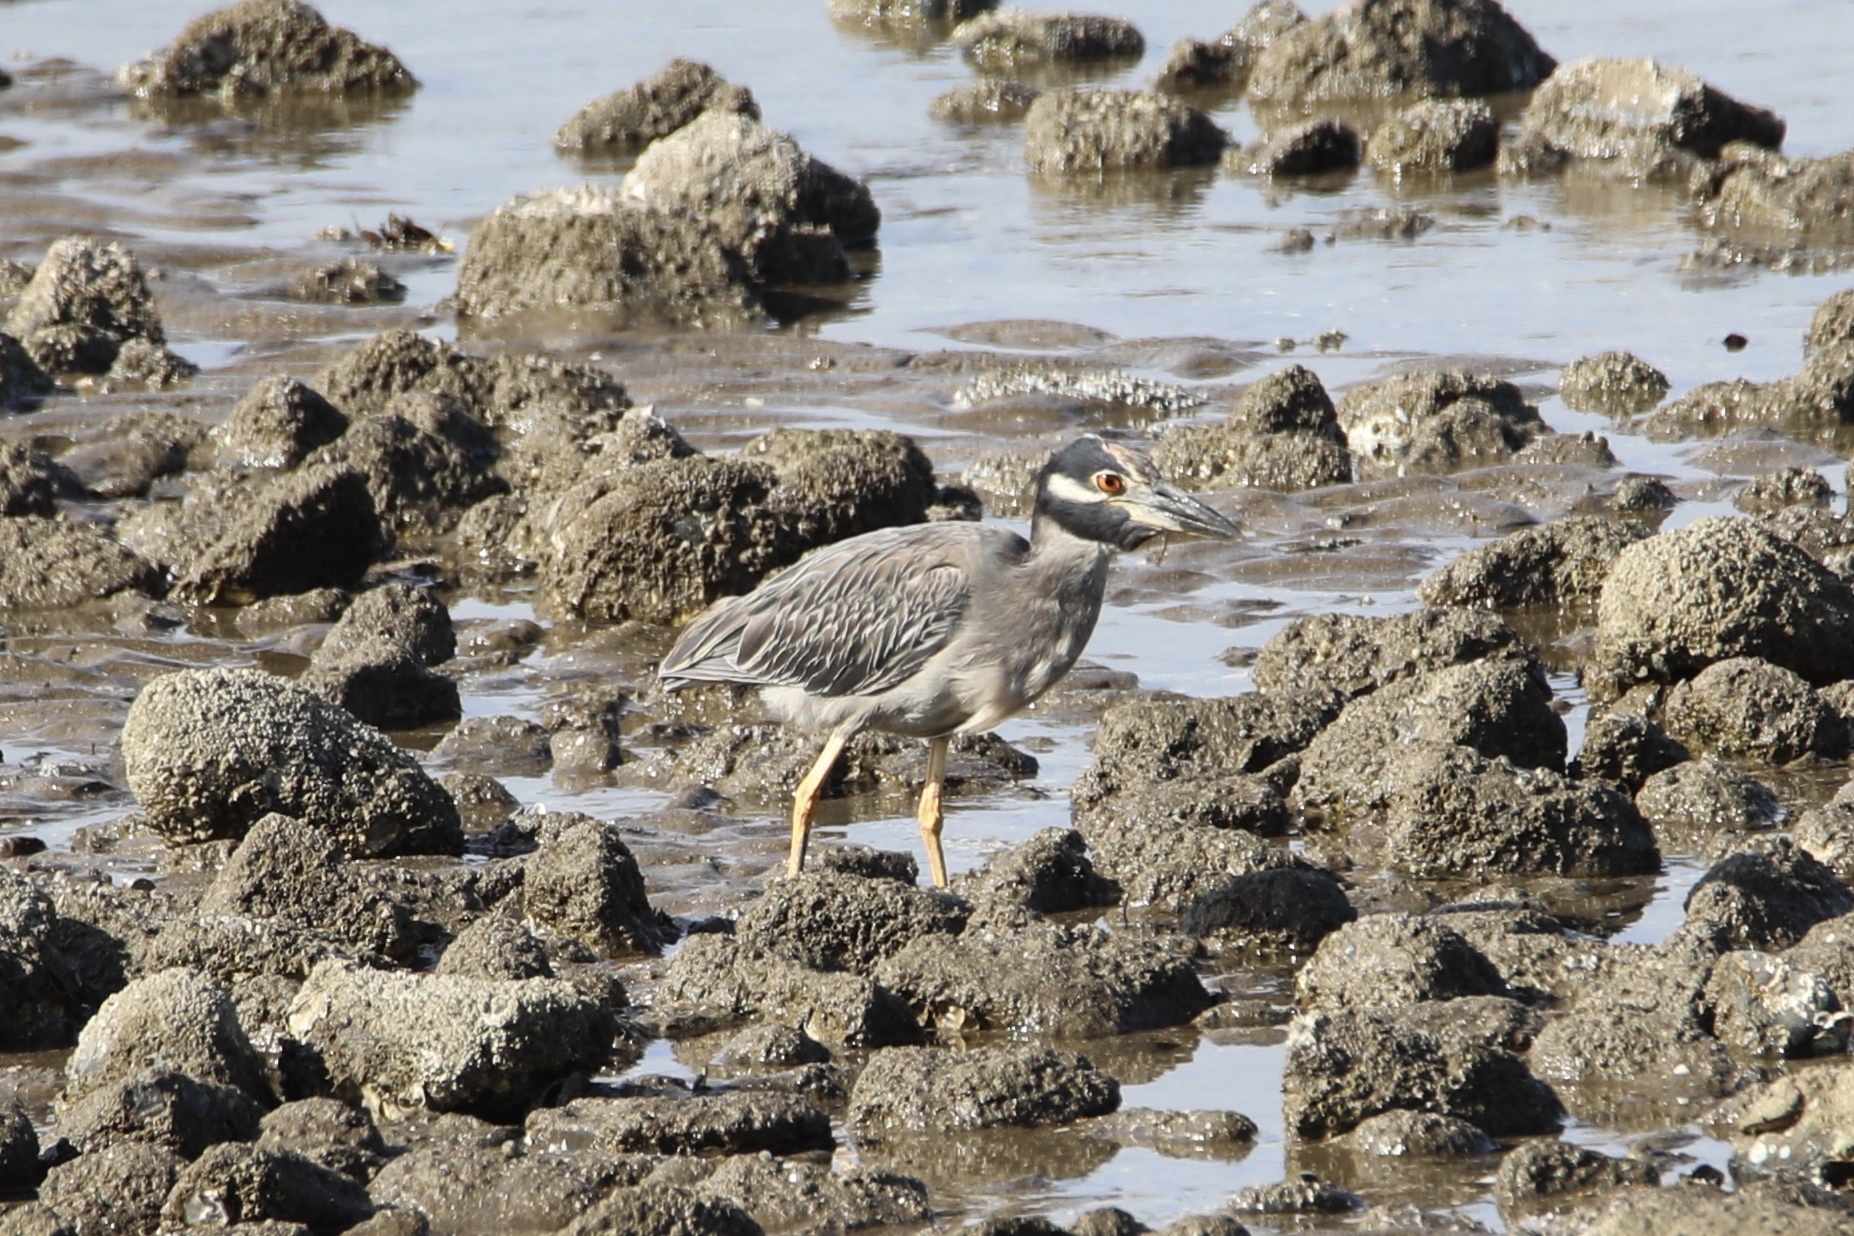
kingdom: Animalia
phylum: Chordata
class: Aves
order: Pelecaniformes
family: Ardeidae
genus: Nyctanassa
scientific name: Nyctanassa violacea
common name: Yellow-crowned night heron
